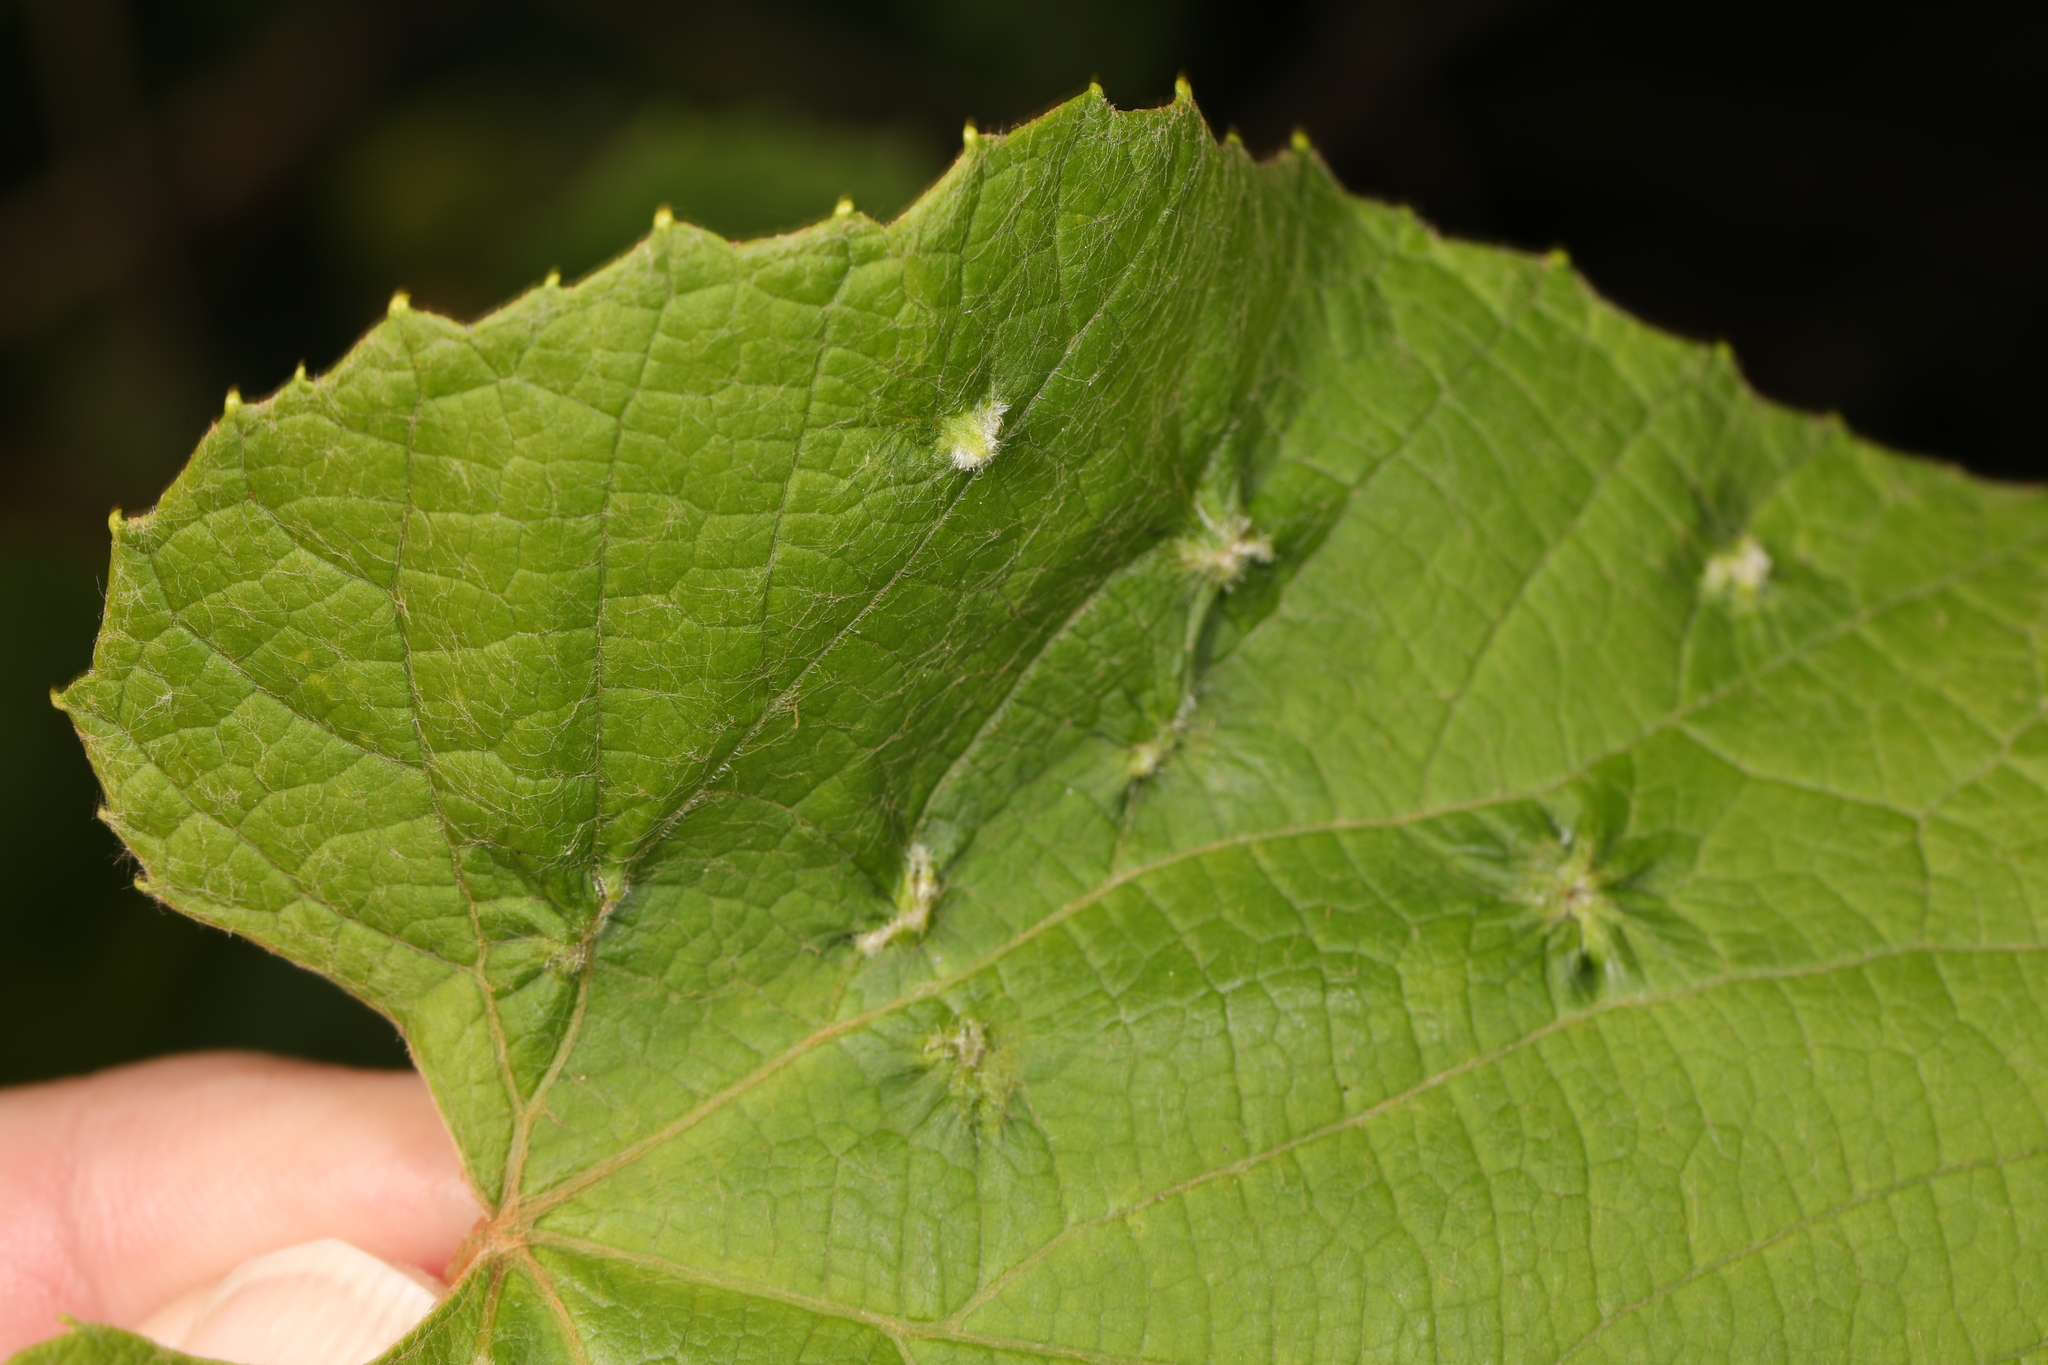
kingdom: Animalia
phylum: Arthropoda
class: Insecta
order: Hemiptera
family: Phylloxeridae
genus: Daktulosphaira
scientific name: Daktulosphaira vitifoliae
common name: Grape phylloxera
